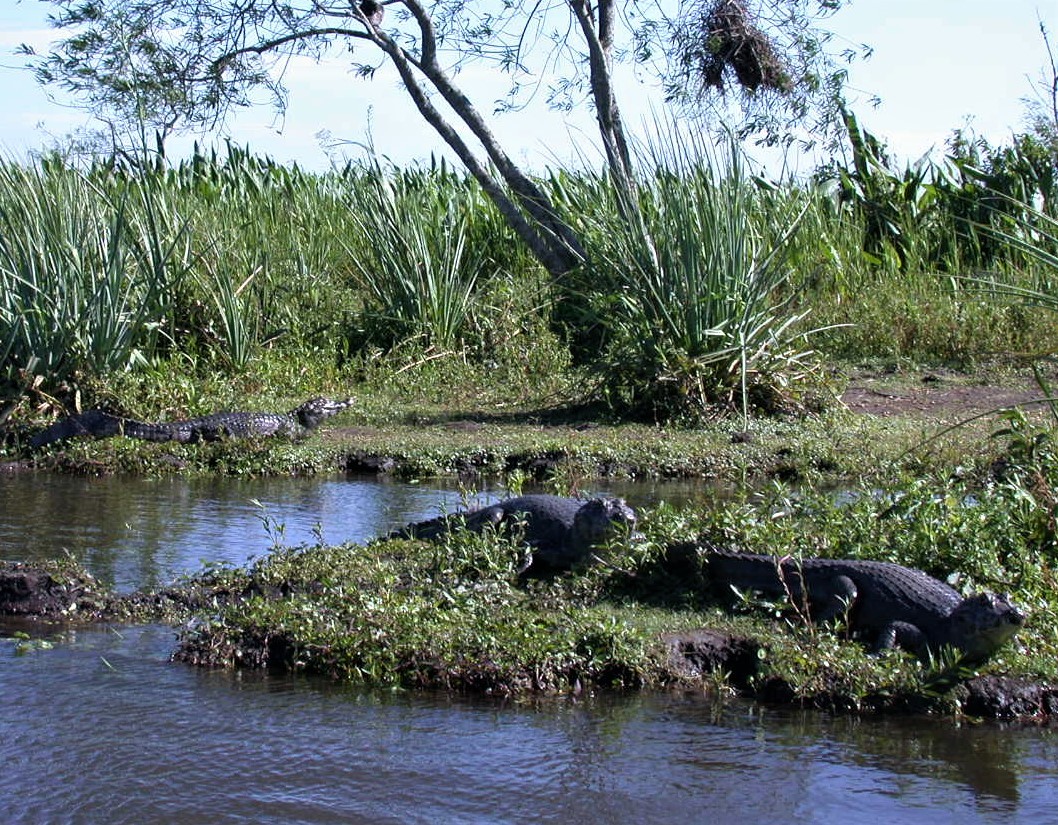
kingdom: Animalia
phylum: Chordata
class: Crocodylia
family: Alligatoridae
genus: Caiman
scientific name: Caiman yacare
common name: Yacare caiman
